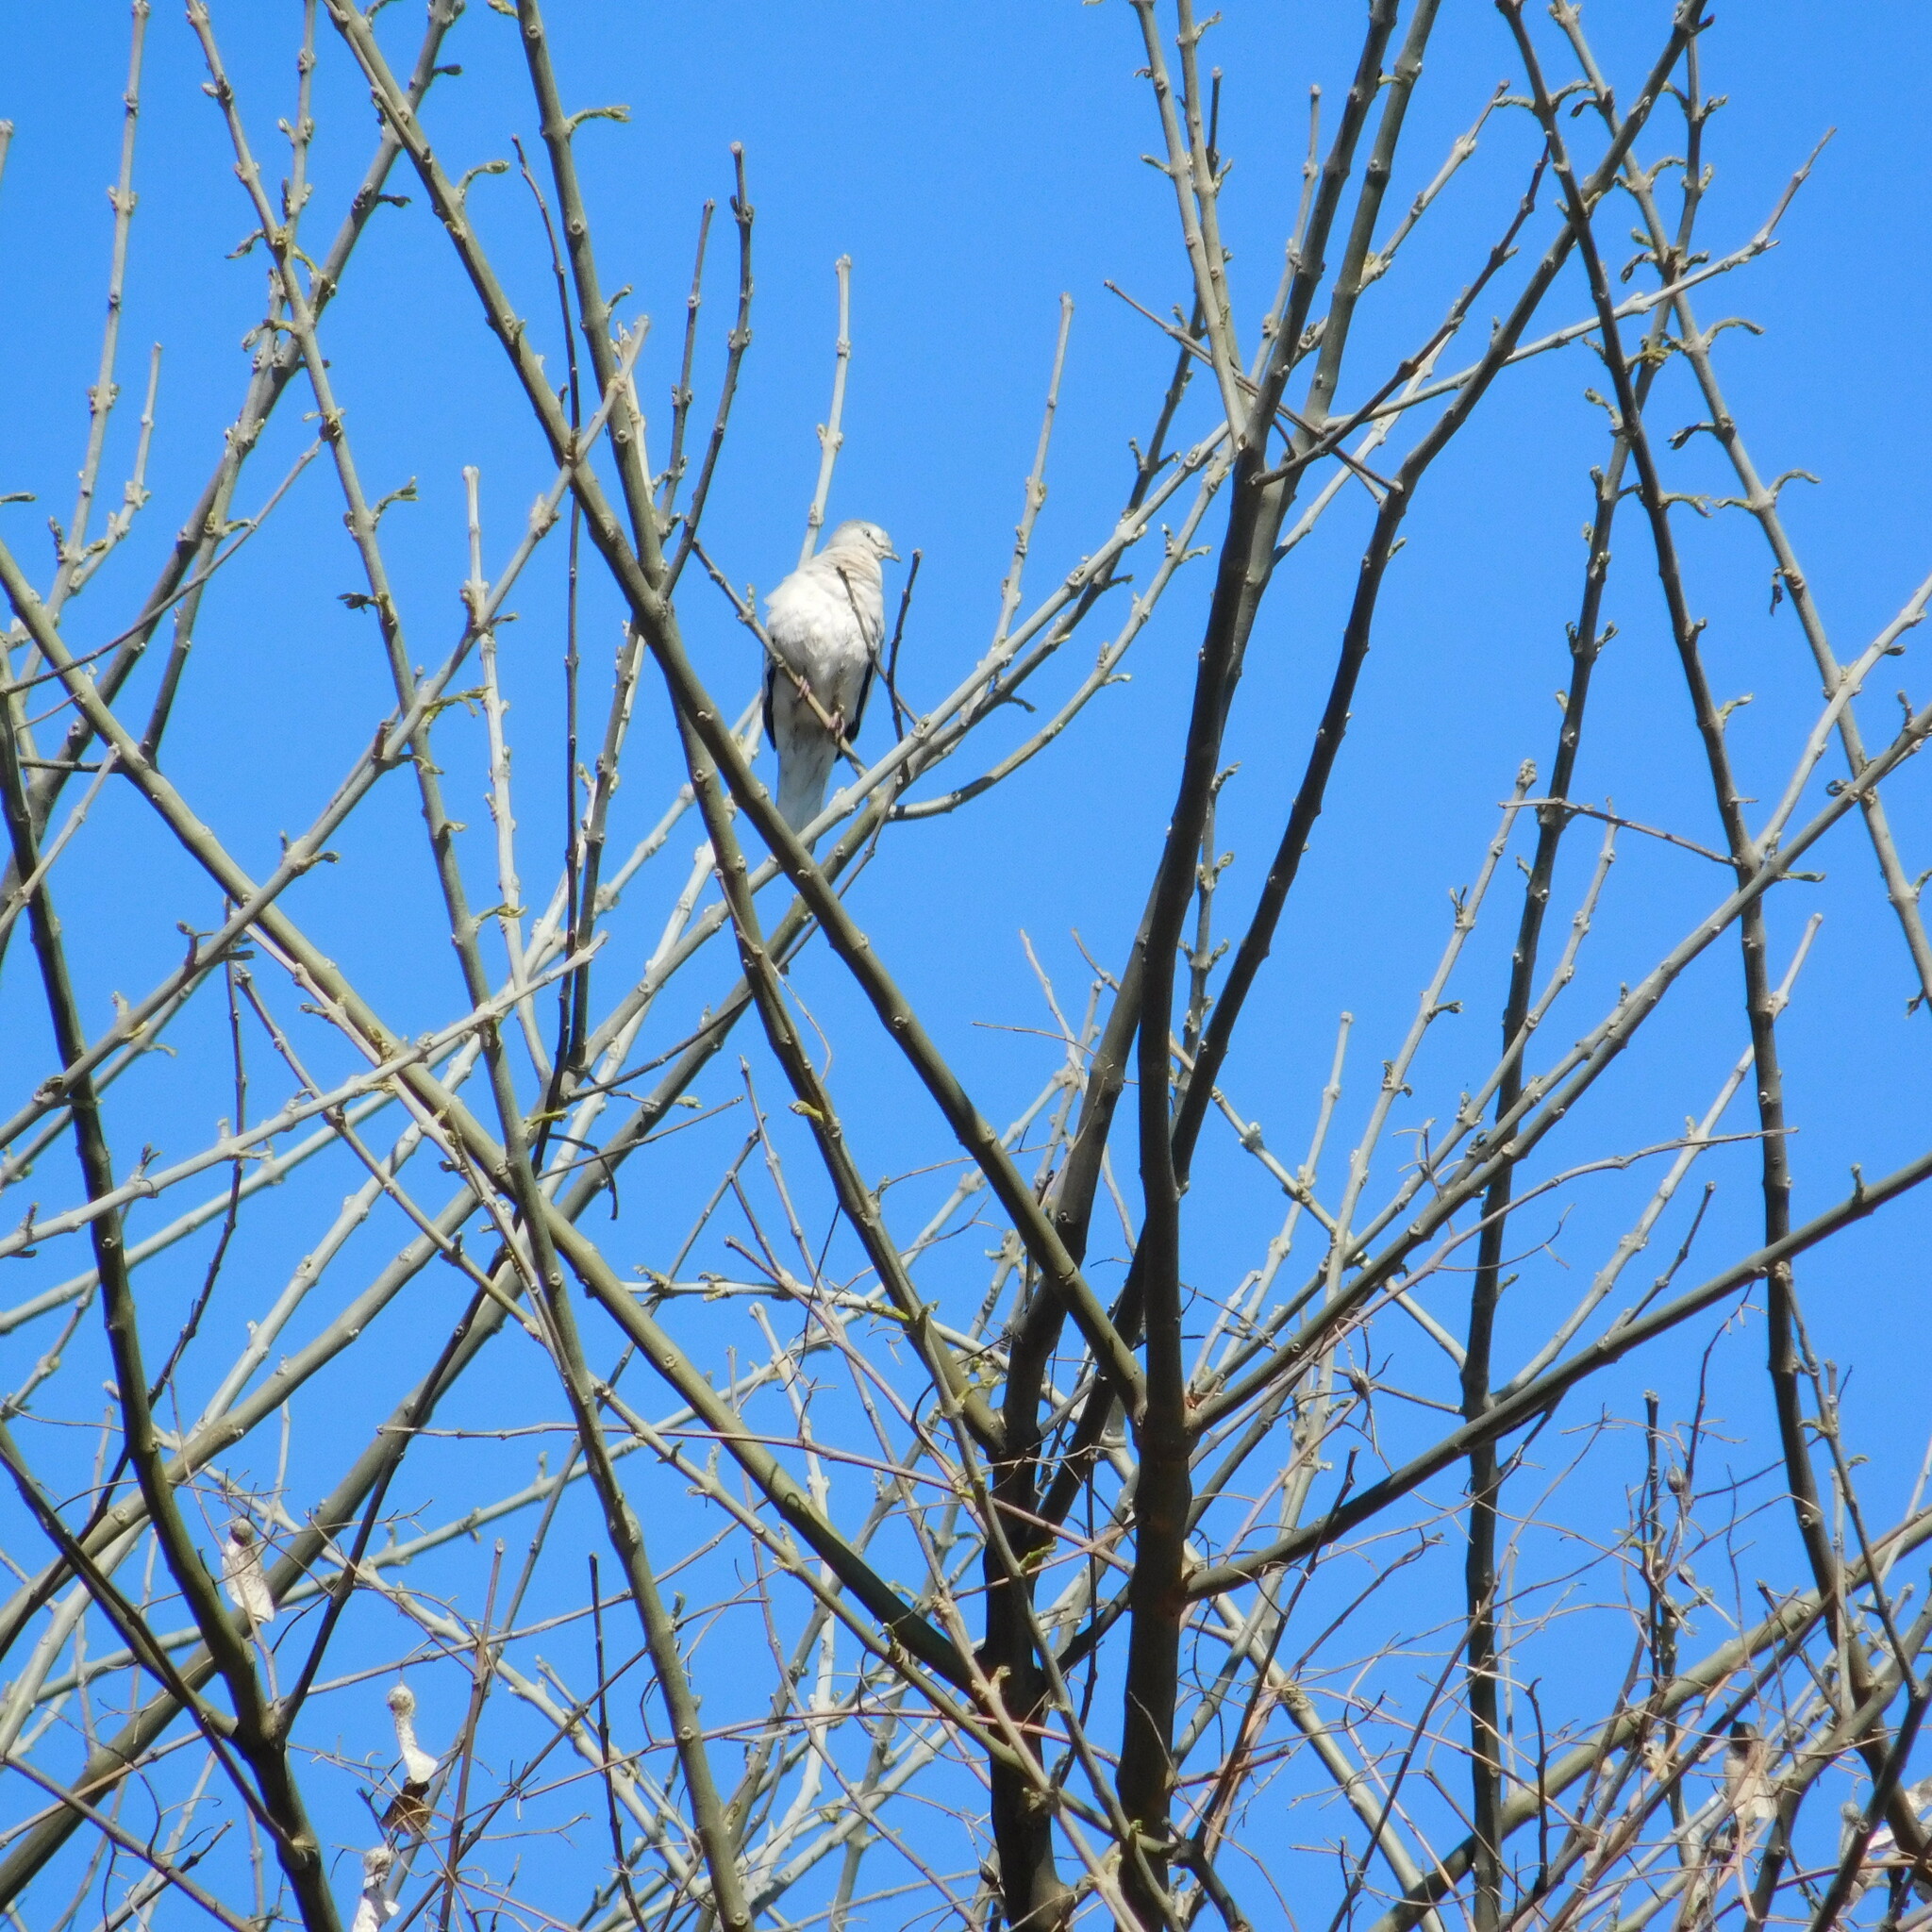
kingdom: Animalia
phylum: Chordata
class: Aves
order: Columbiformes
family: Columbidae
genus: Columbina
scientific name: Columbina picui
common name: Picui ground dove
